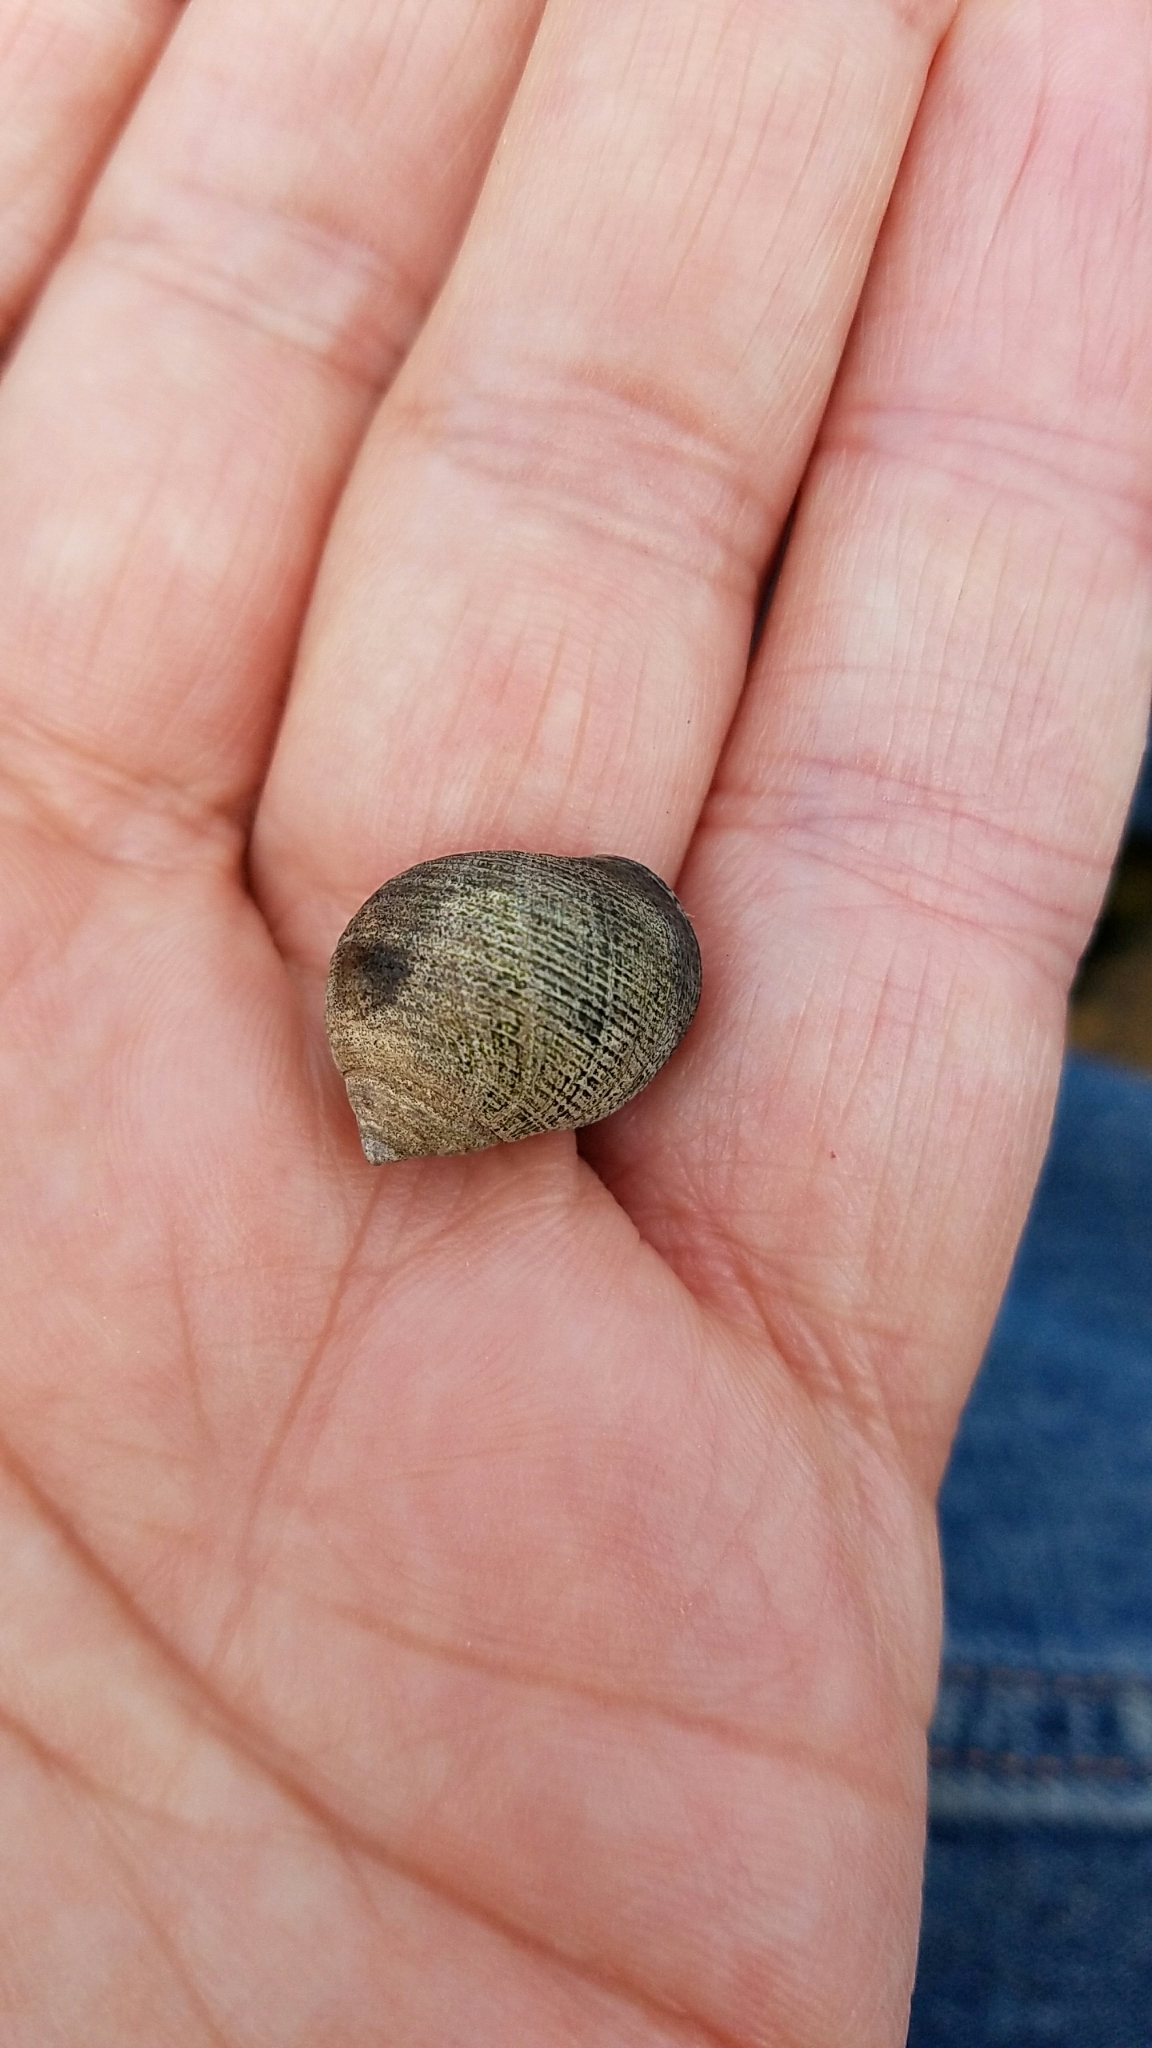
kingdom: Animalia
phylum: Mollusca
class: Gastropoda
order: Littorinimorpha
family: Littorinidae
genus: Littorina
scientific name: Littorina littorea
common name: Common periwinkle
